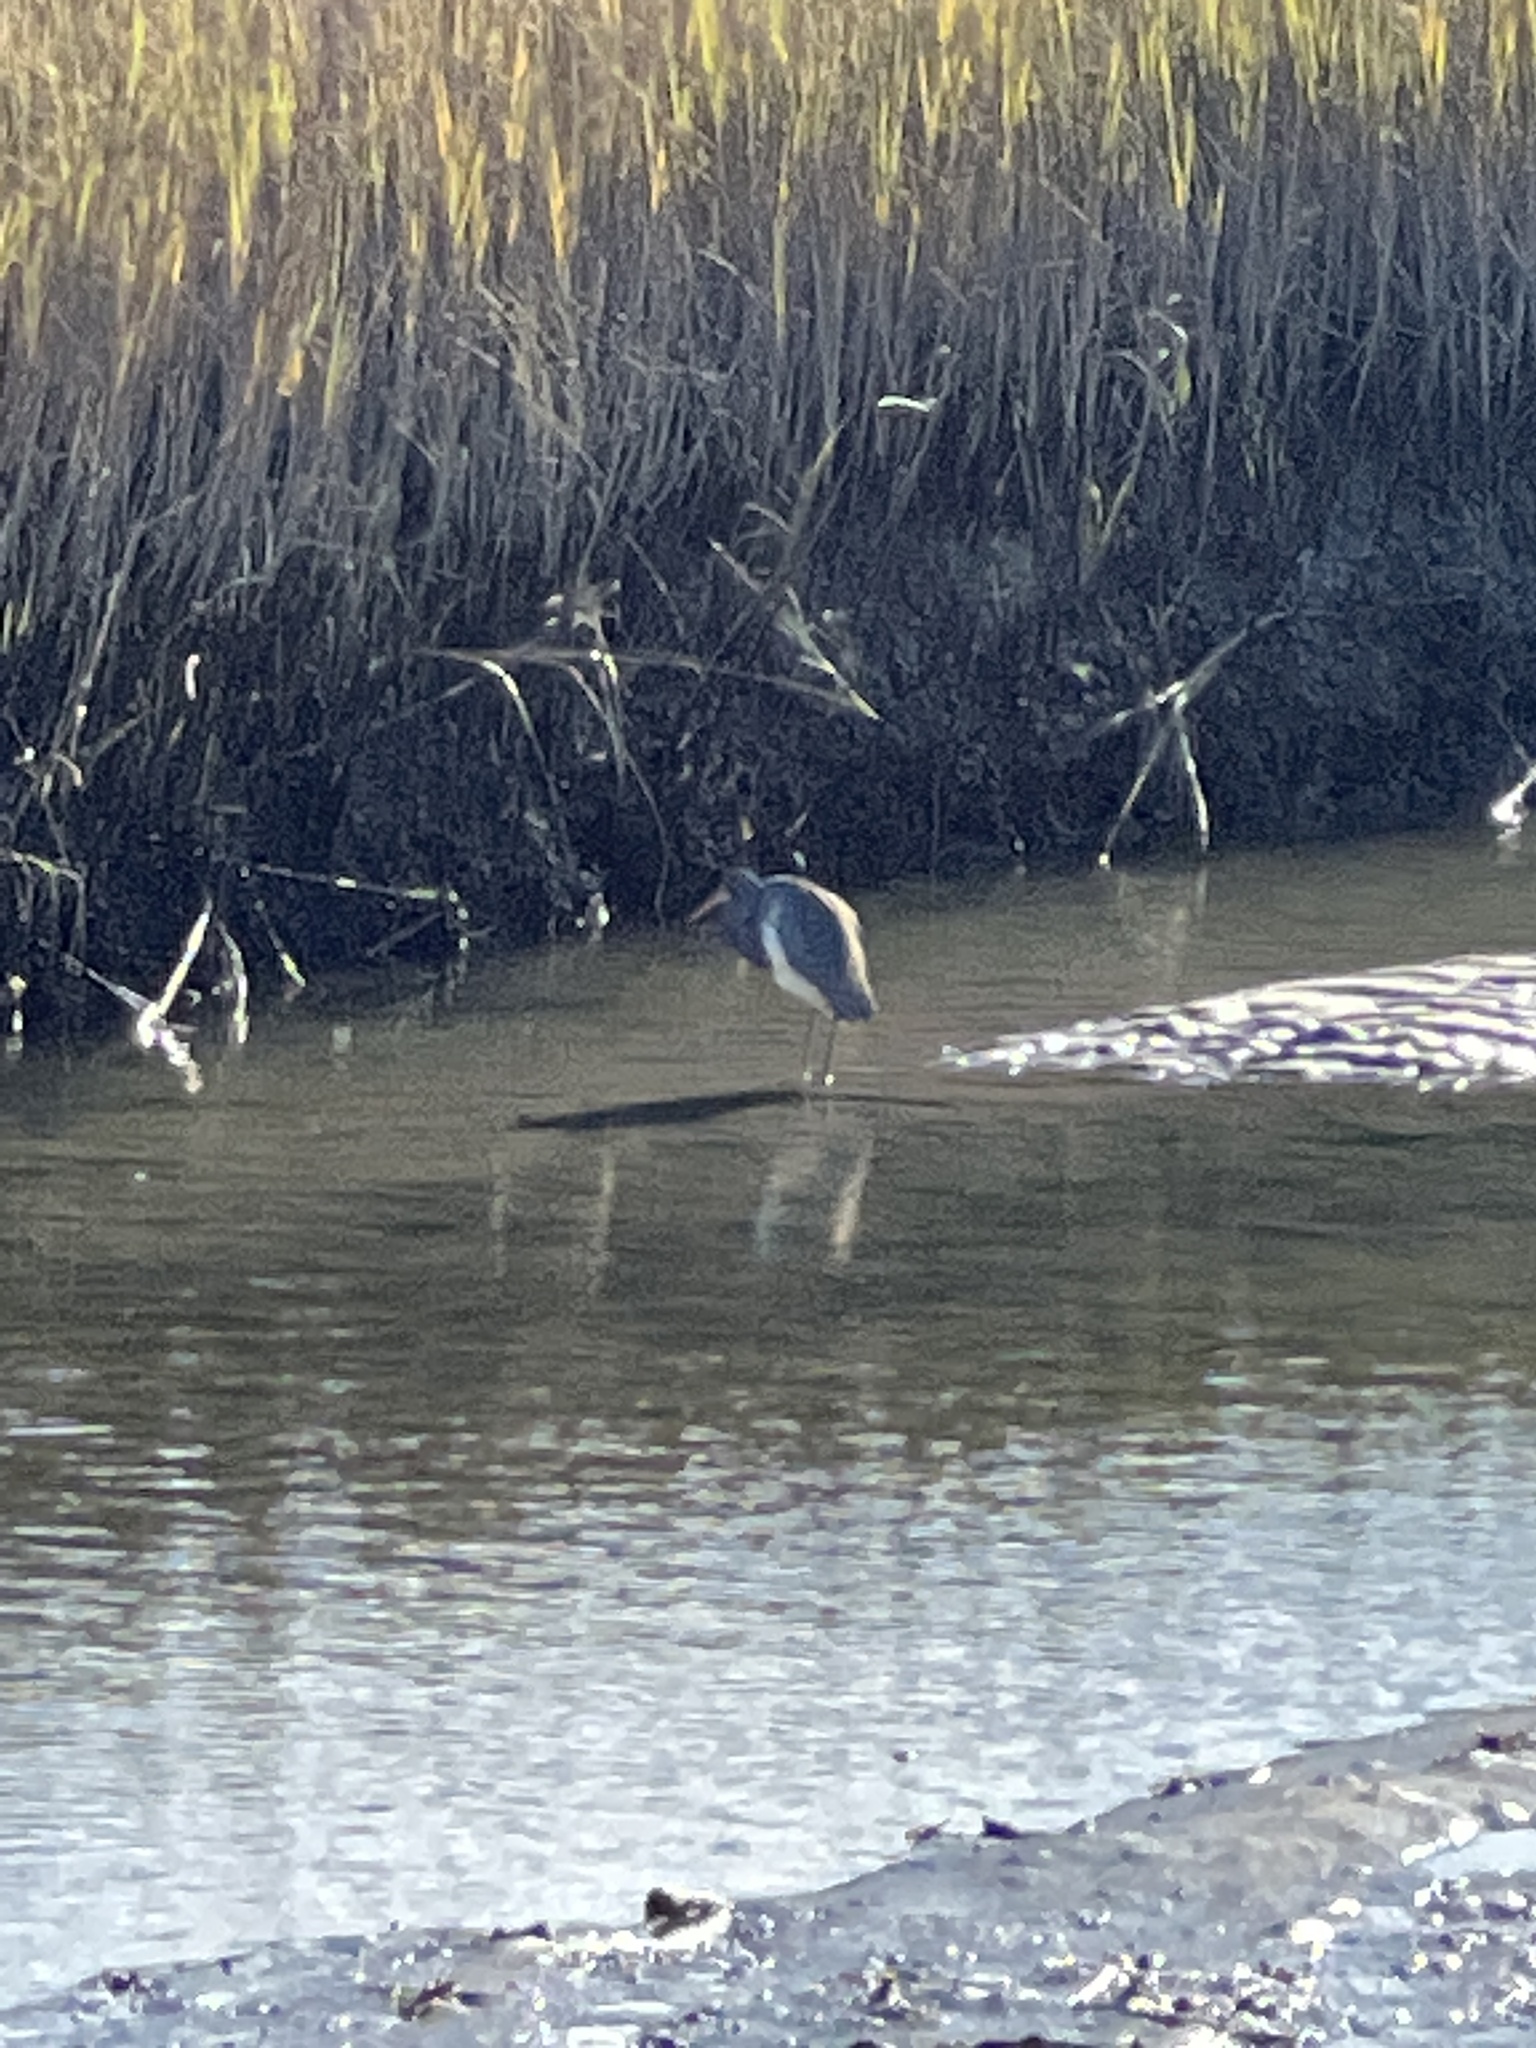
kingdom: Animalia
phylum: Chordata
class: Aves
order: Pelecaniformes
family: Ardeidae
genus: Egretta
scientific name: Egretta tricolor
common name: Tricolored heron
